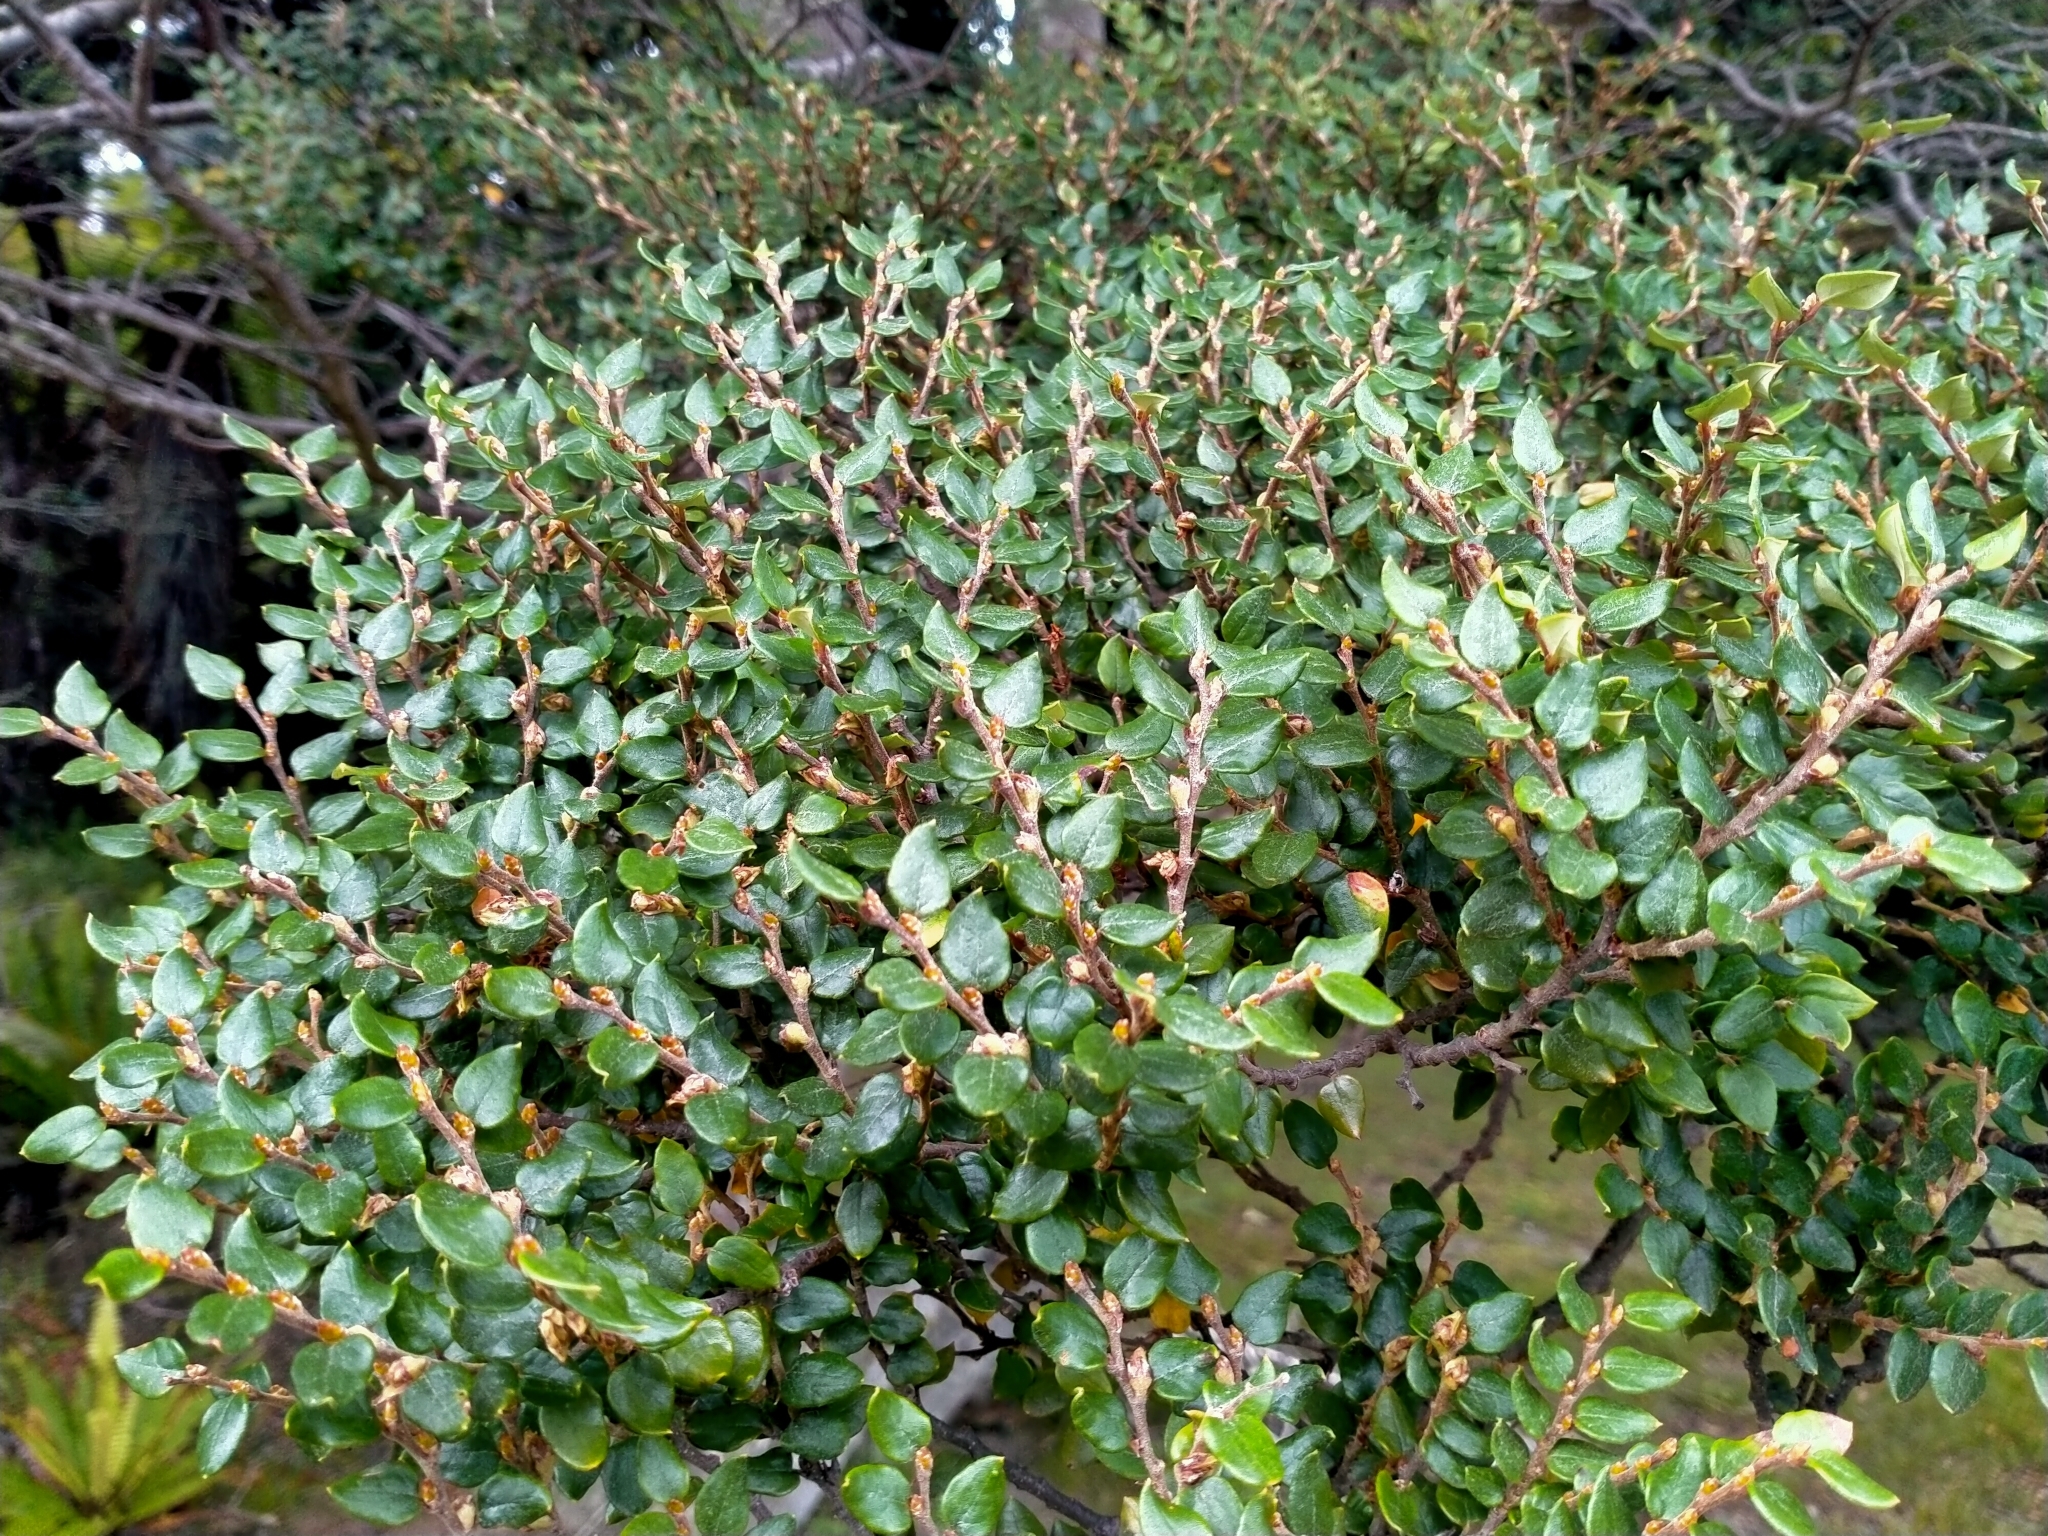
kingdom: Plantae
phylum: Tracheophyta
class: Magnoliopsida
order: Fagales
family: Nothofagaceae
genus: Nothofagus
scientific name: Nothofagus cliffortioides
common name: Mountain beech
